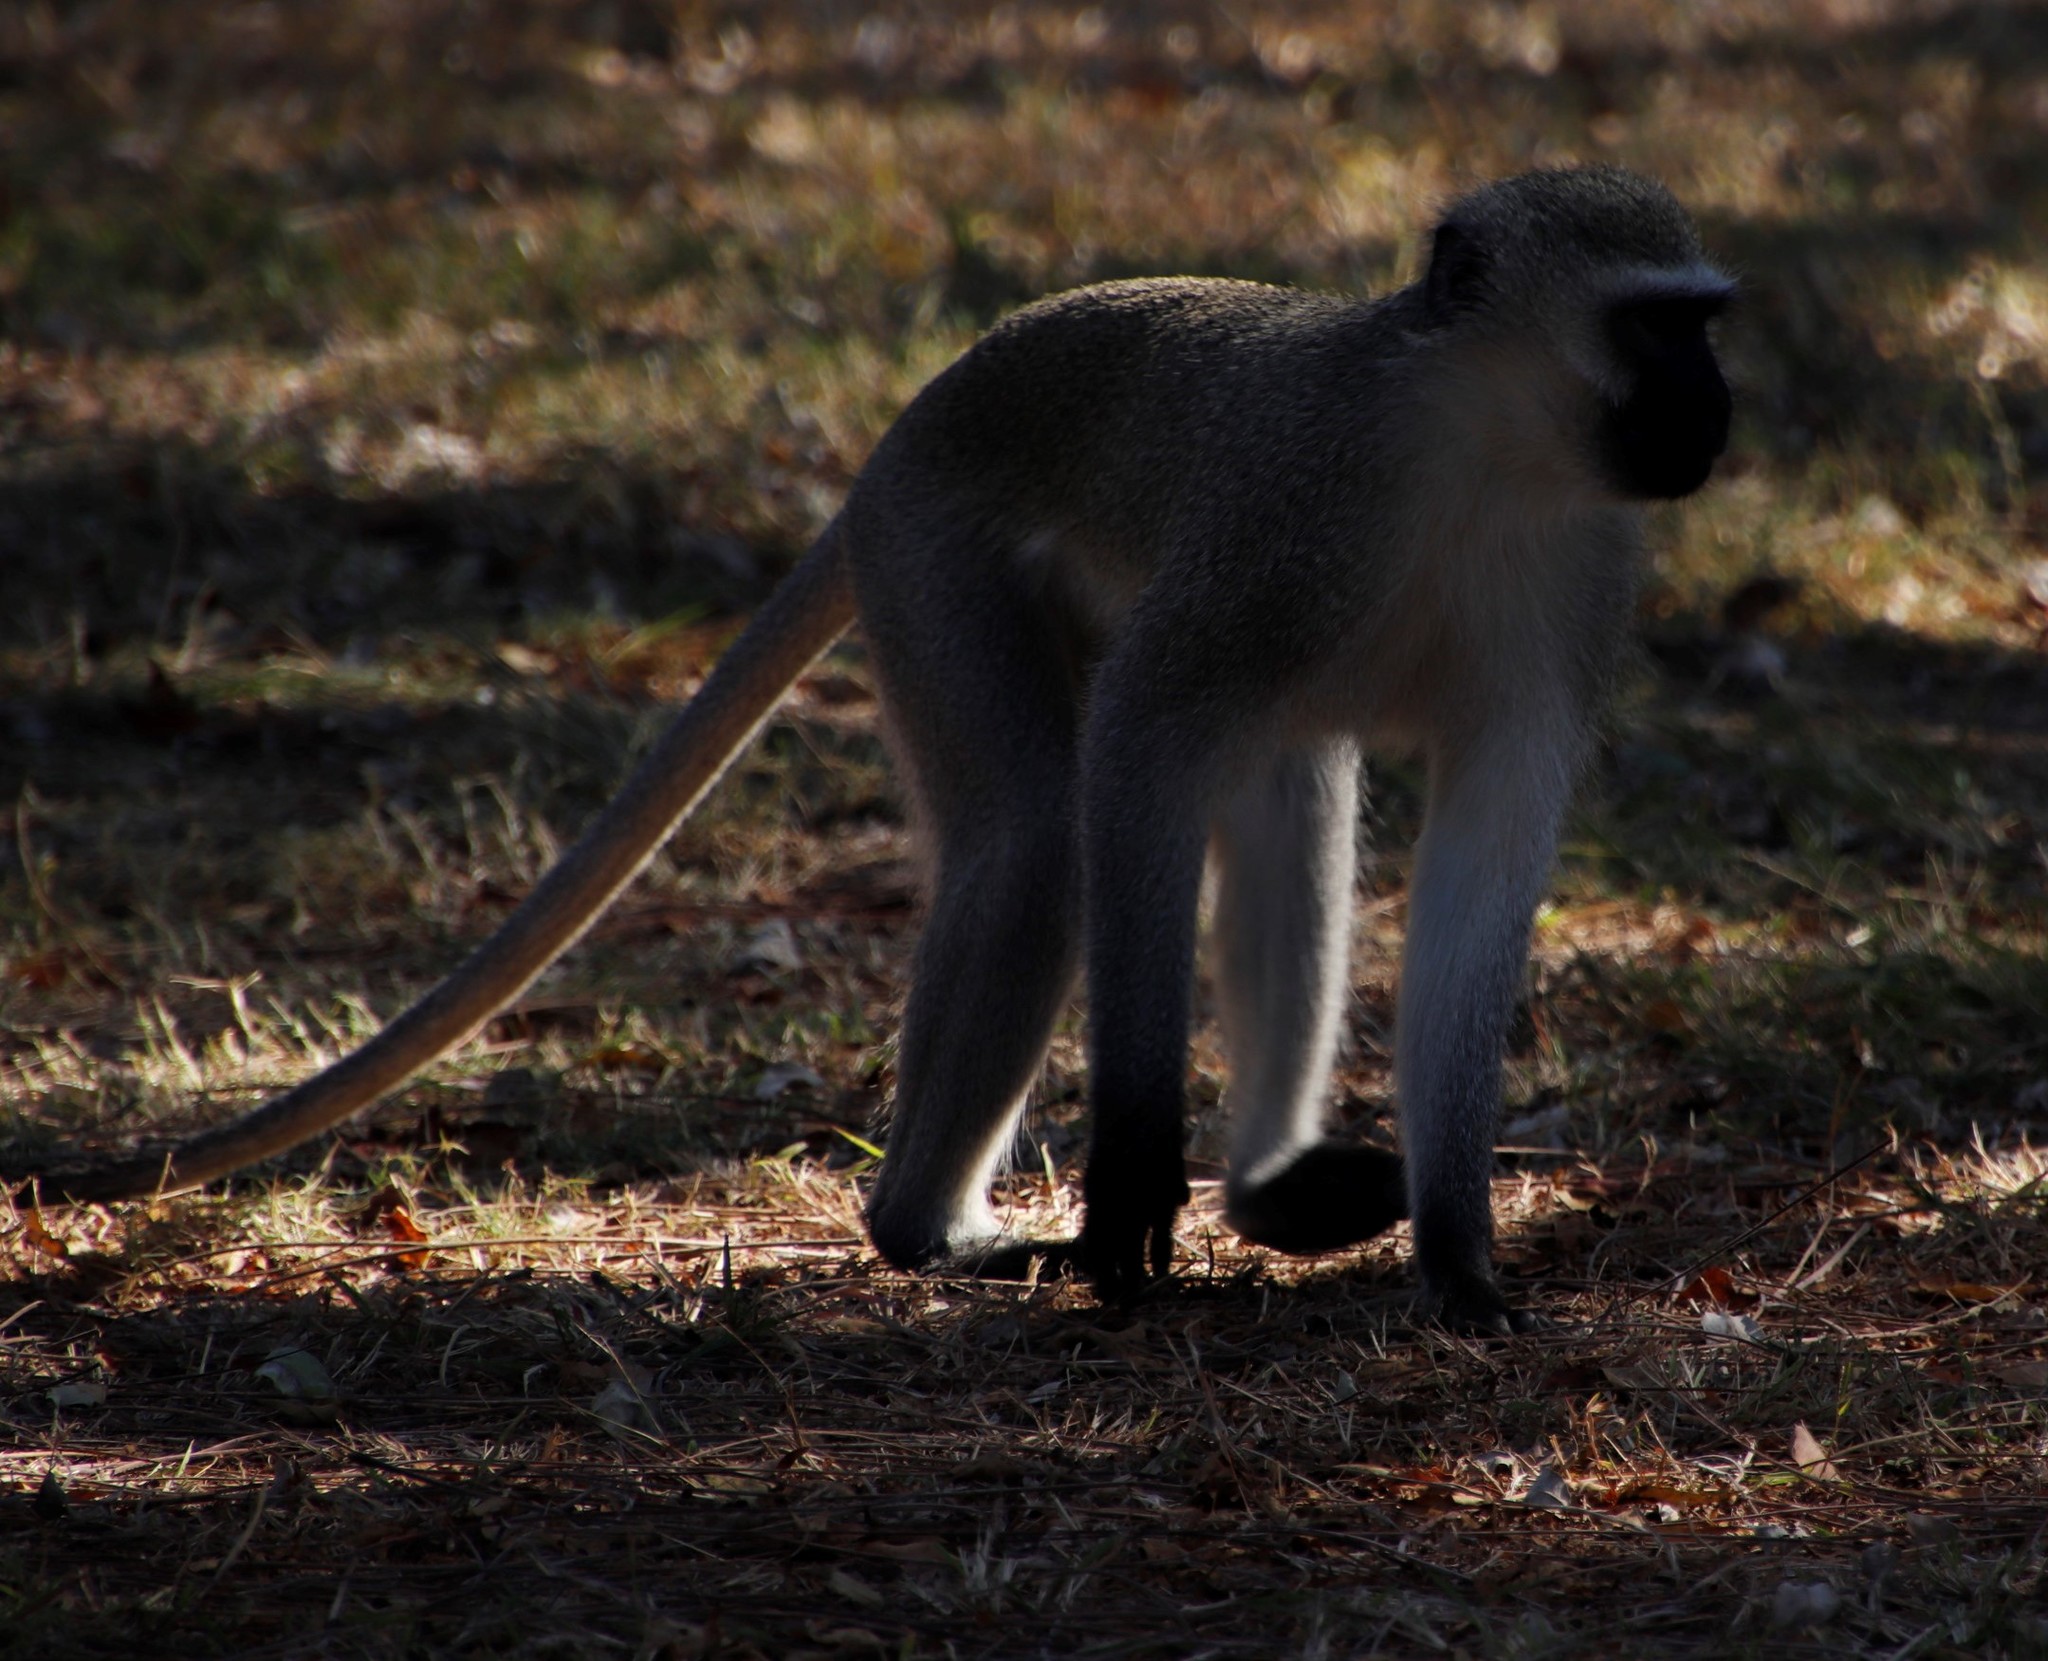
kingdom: Animalia
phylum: Chordata
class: Mammalia
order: Primates
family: Cercopithecidae
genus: Chlorocebus
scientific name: Chlorocebus pygerythrus
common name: Vervet monkey
